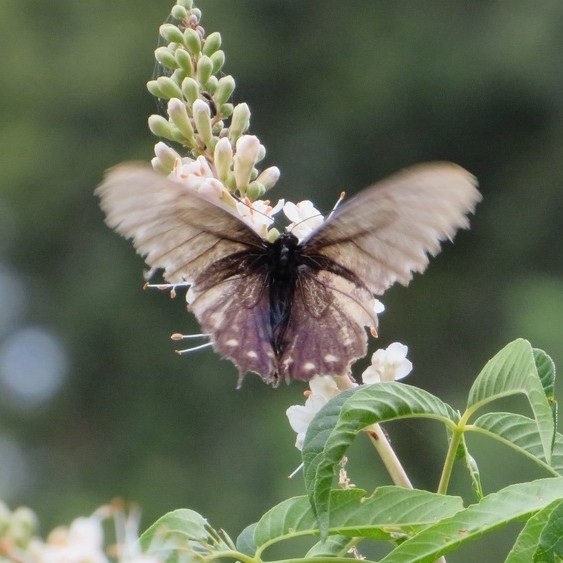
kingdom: Animalia
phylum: Arthropoda
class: Insecta
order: Lepidoptera
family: Papilionidae
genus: Battus
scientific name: Battus philenor
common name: Pipevine swallowtail
